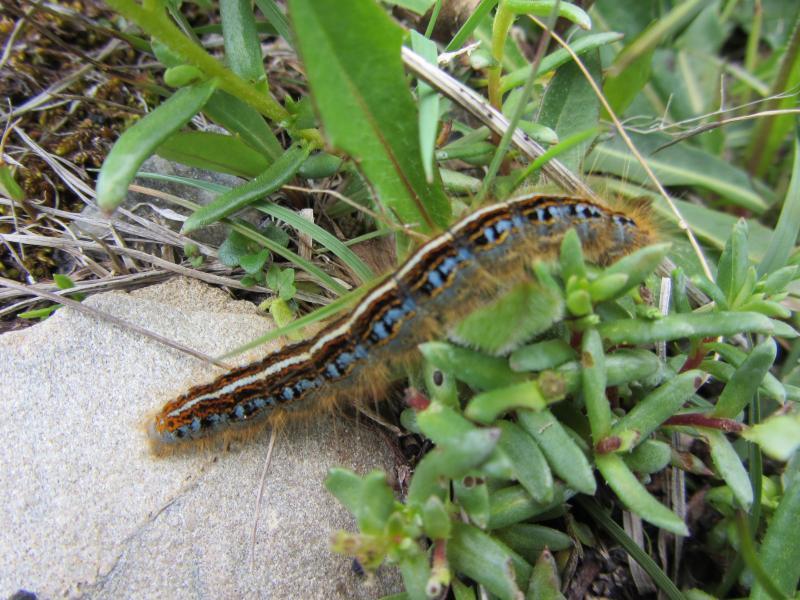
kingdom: Animalia
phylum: Arthropoda
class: Insecta
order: Lepidoptera
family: Lasiocampidae
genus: Malacosoma
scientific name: Malacosoma castrense
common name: Ground lackey
